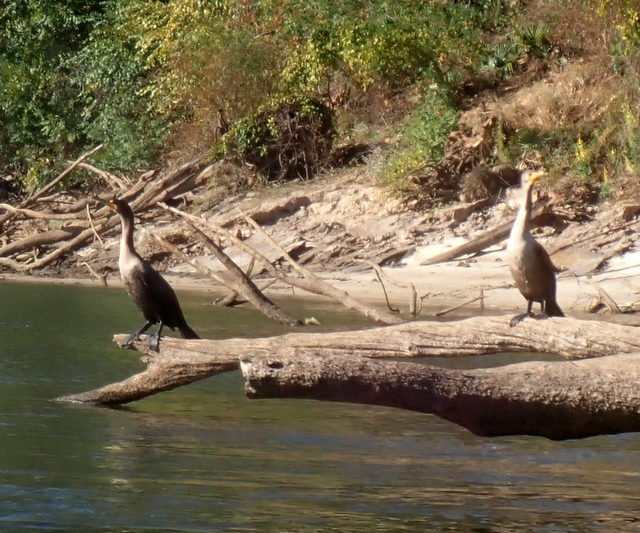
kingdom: Animalia
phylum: Chordata
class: Aves
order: Suliformes
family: Phalacrocoracidae
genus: Phalacrocorax
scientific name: Phalacrocorax auritus
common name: Double-crested cormorant
